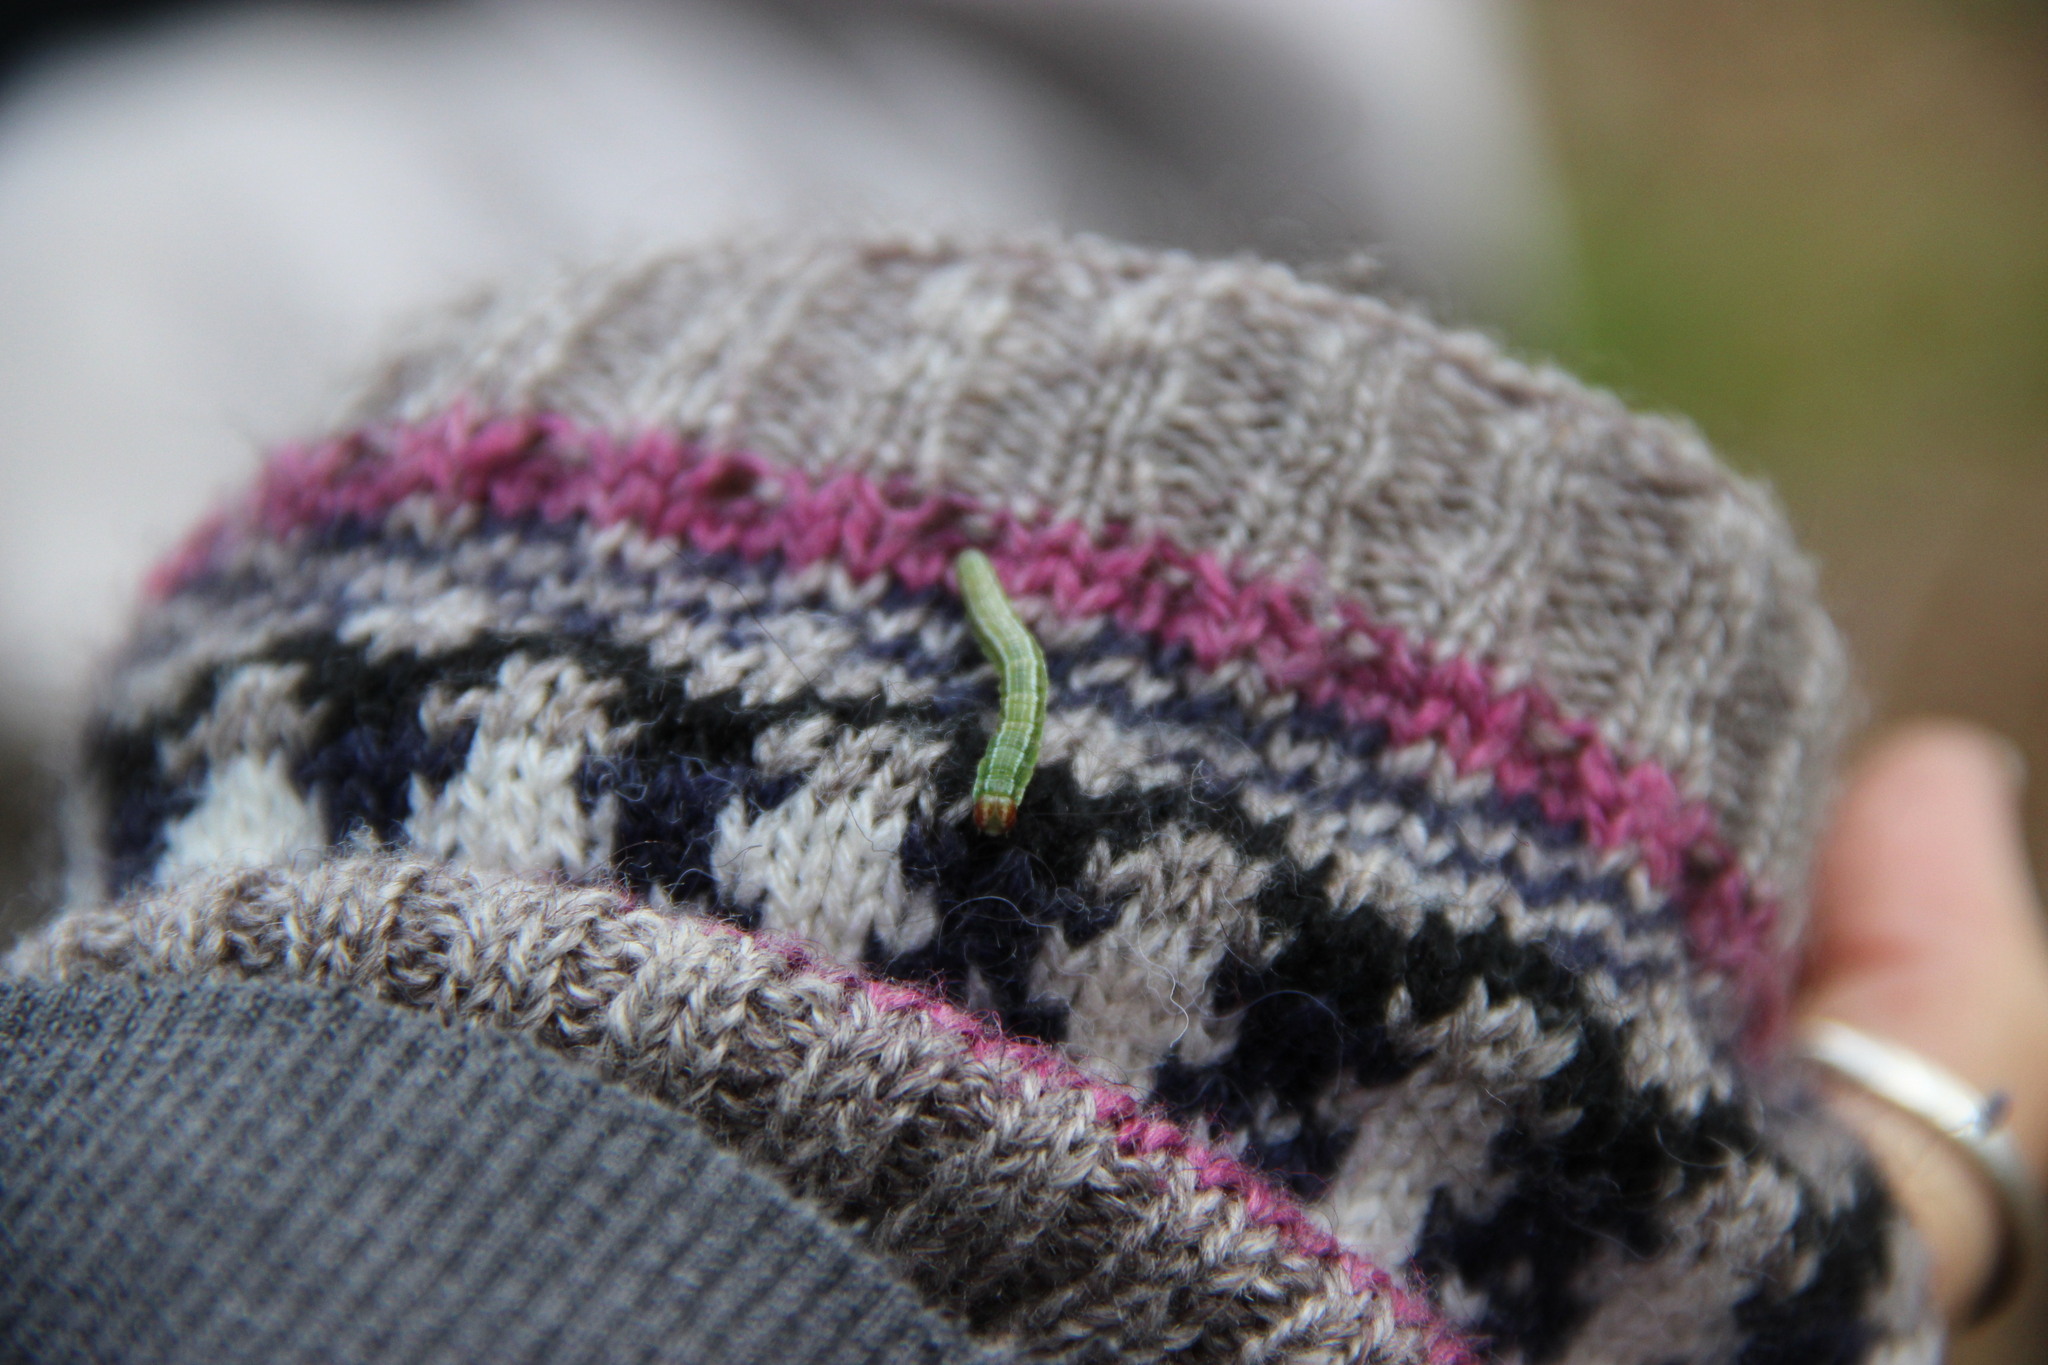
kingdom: Animalia
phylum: Arthropoda
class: Insecta
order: Lepidoptera
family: Geometridae
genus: Macaria
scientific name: Macaria liturata
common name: Tawny-barred angle
